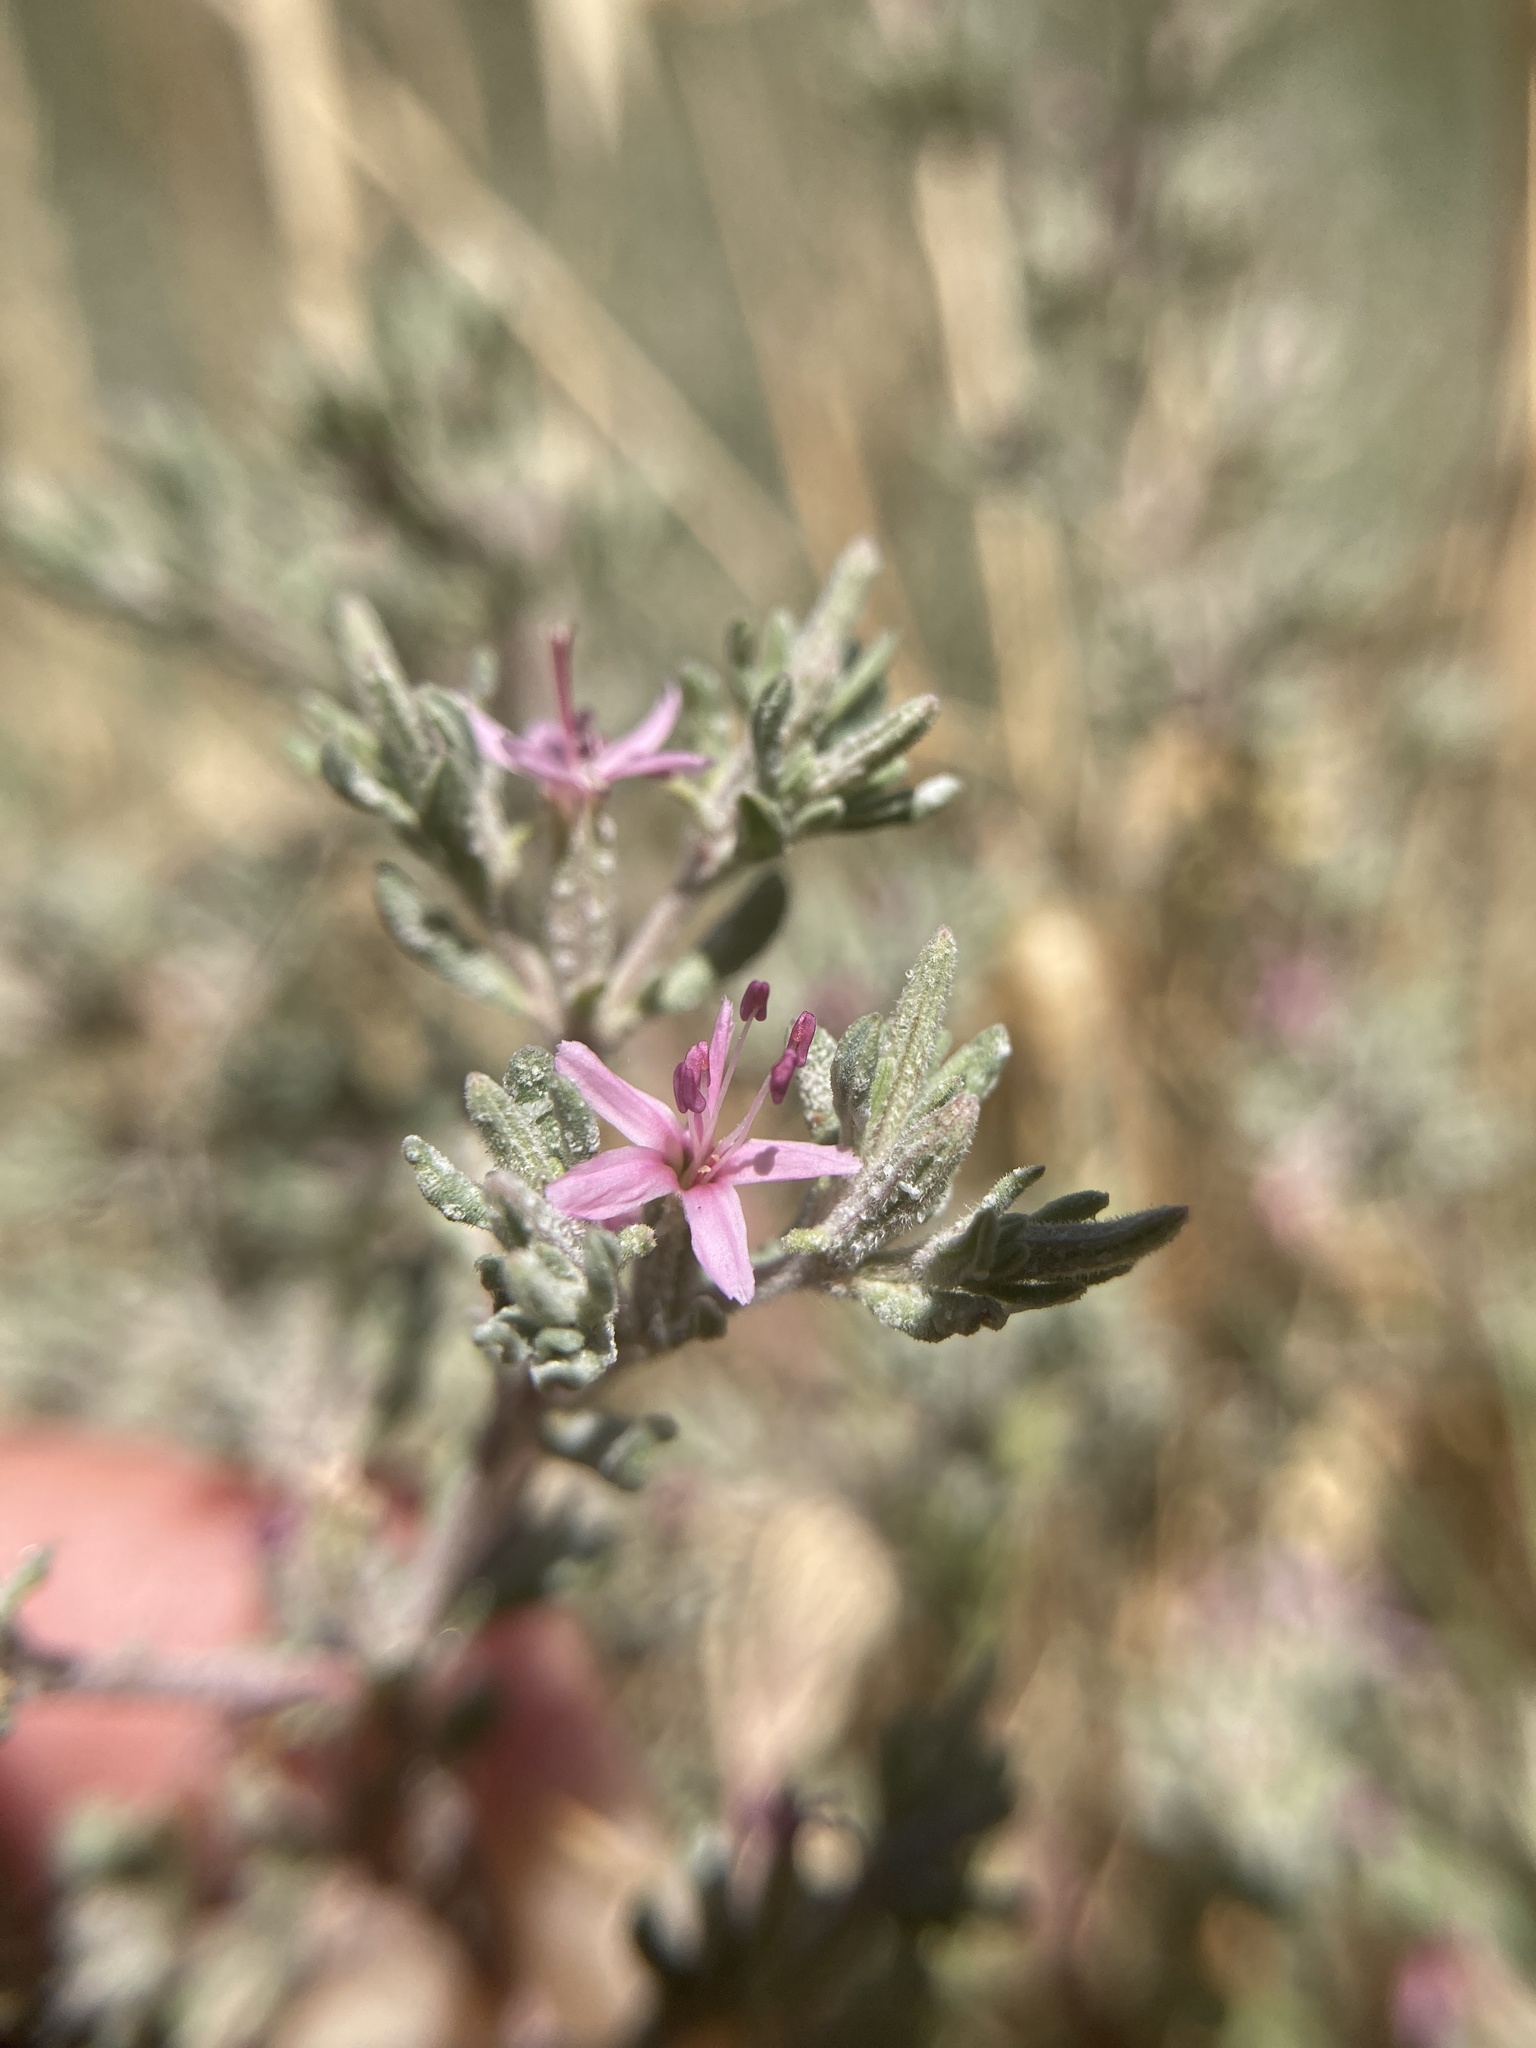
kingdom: Plantae
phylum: Tracheophyta
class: Magnoliopsida
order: Caryophyllales
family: Frankeniaceae
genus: Frankenia
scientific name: Frankenia salina
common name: Alkali seaheath
